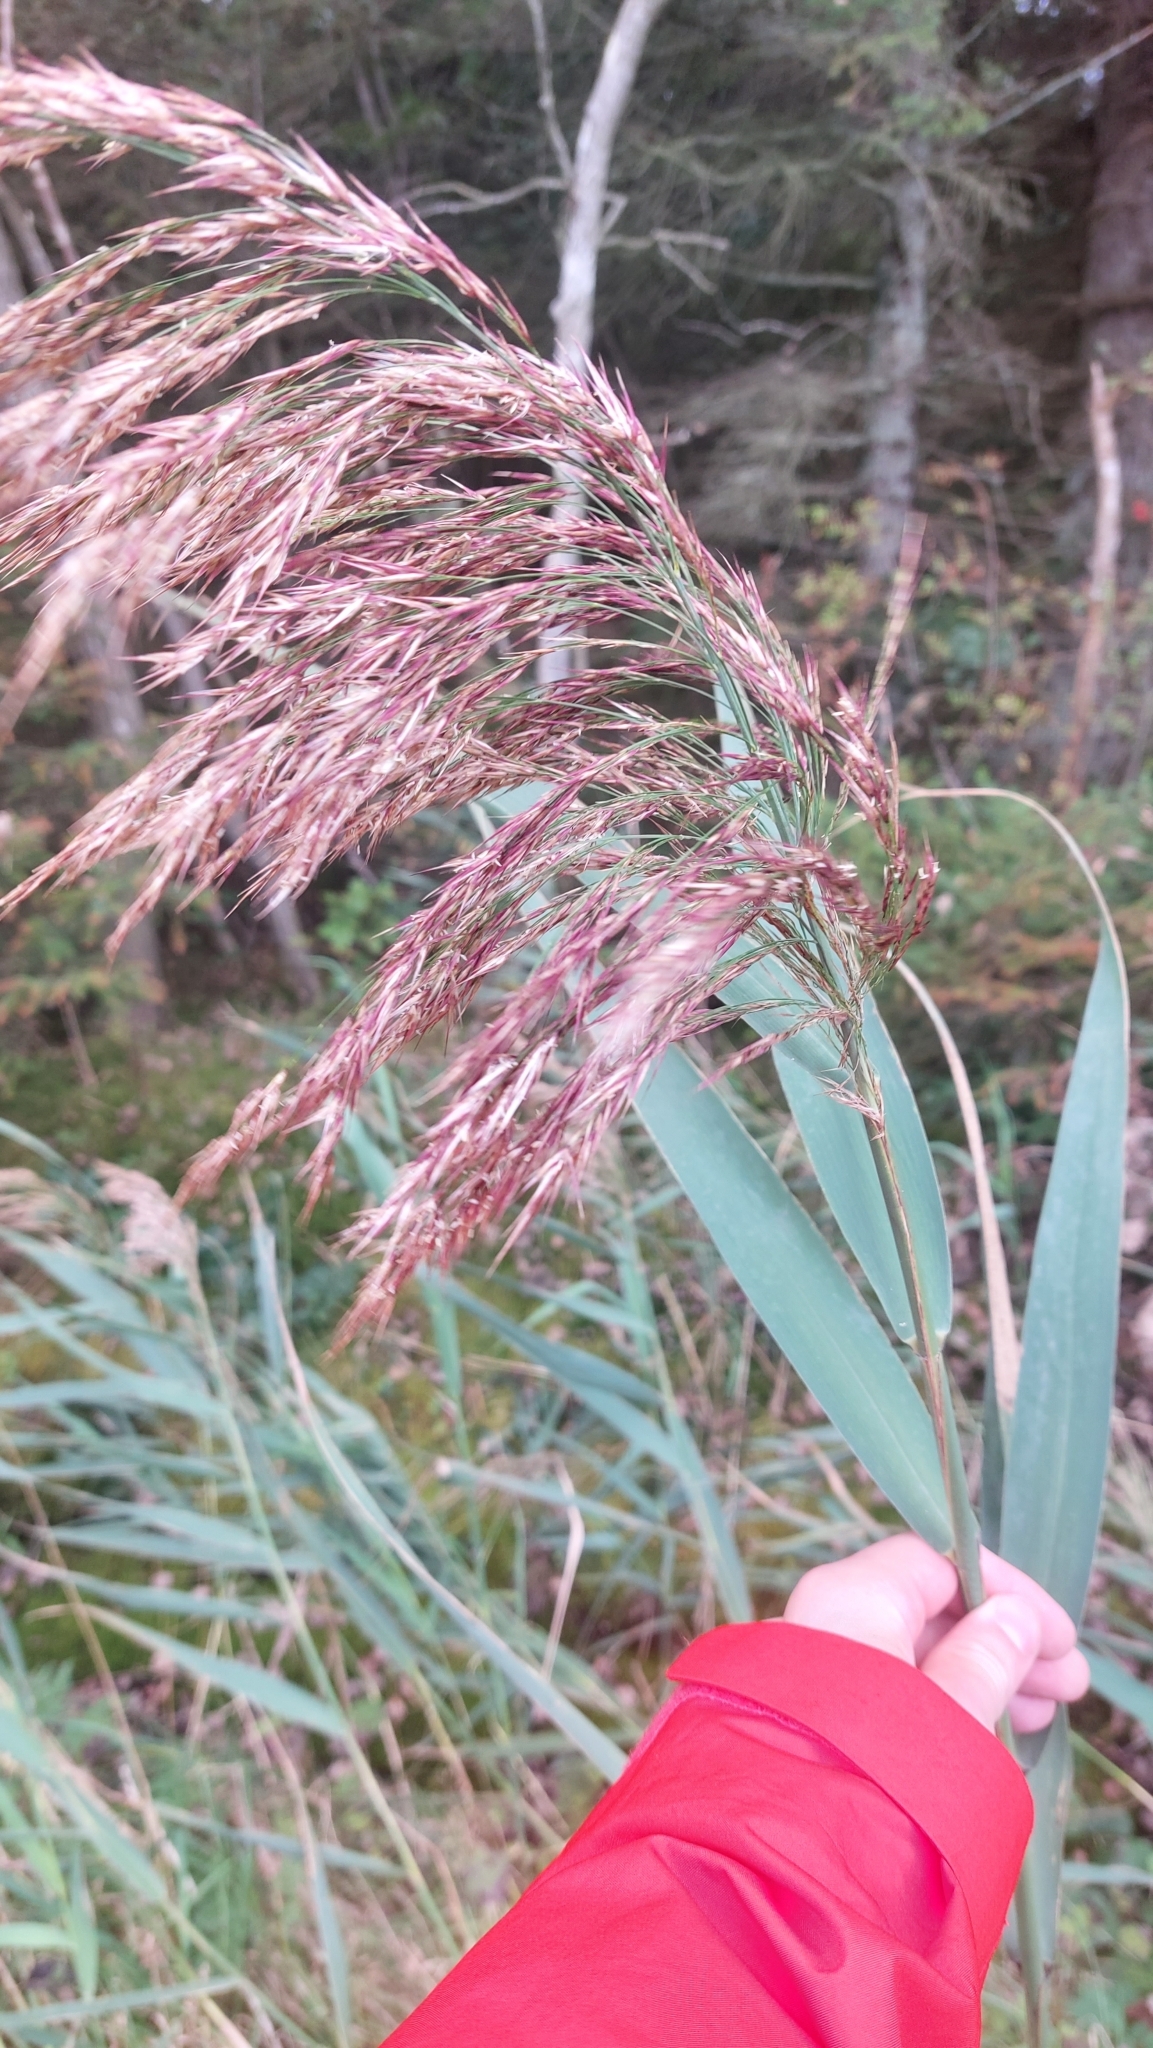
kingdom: Plantae
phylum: Tracheophyta
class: Liliopsida
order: Poales
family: Poaceae
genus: Phragmites
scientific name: Phragmites australis
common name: Common reed
